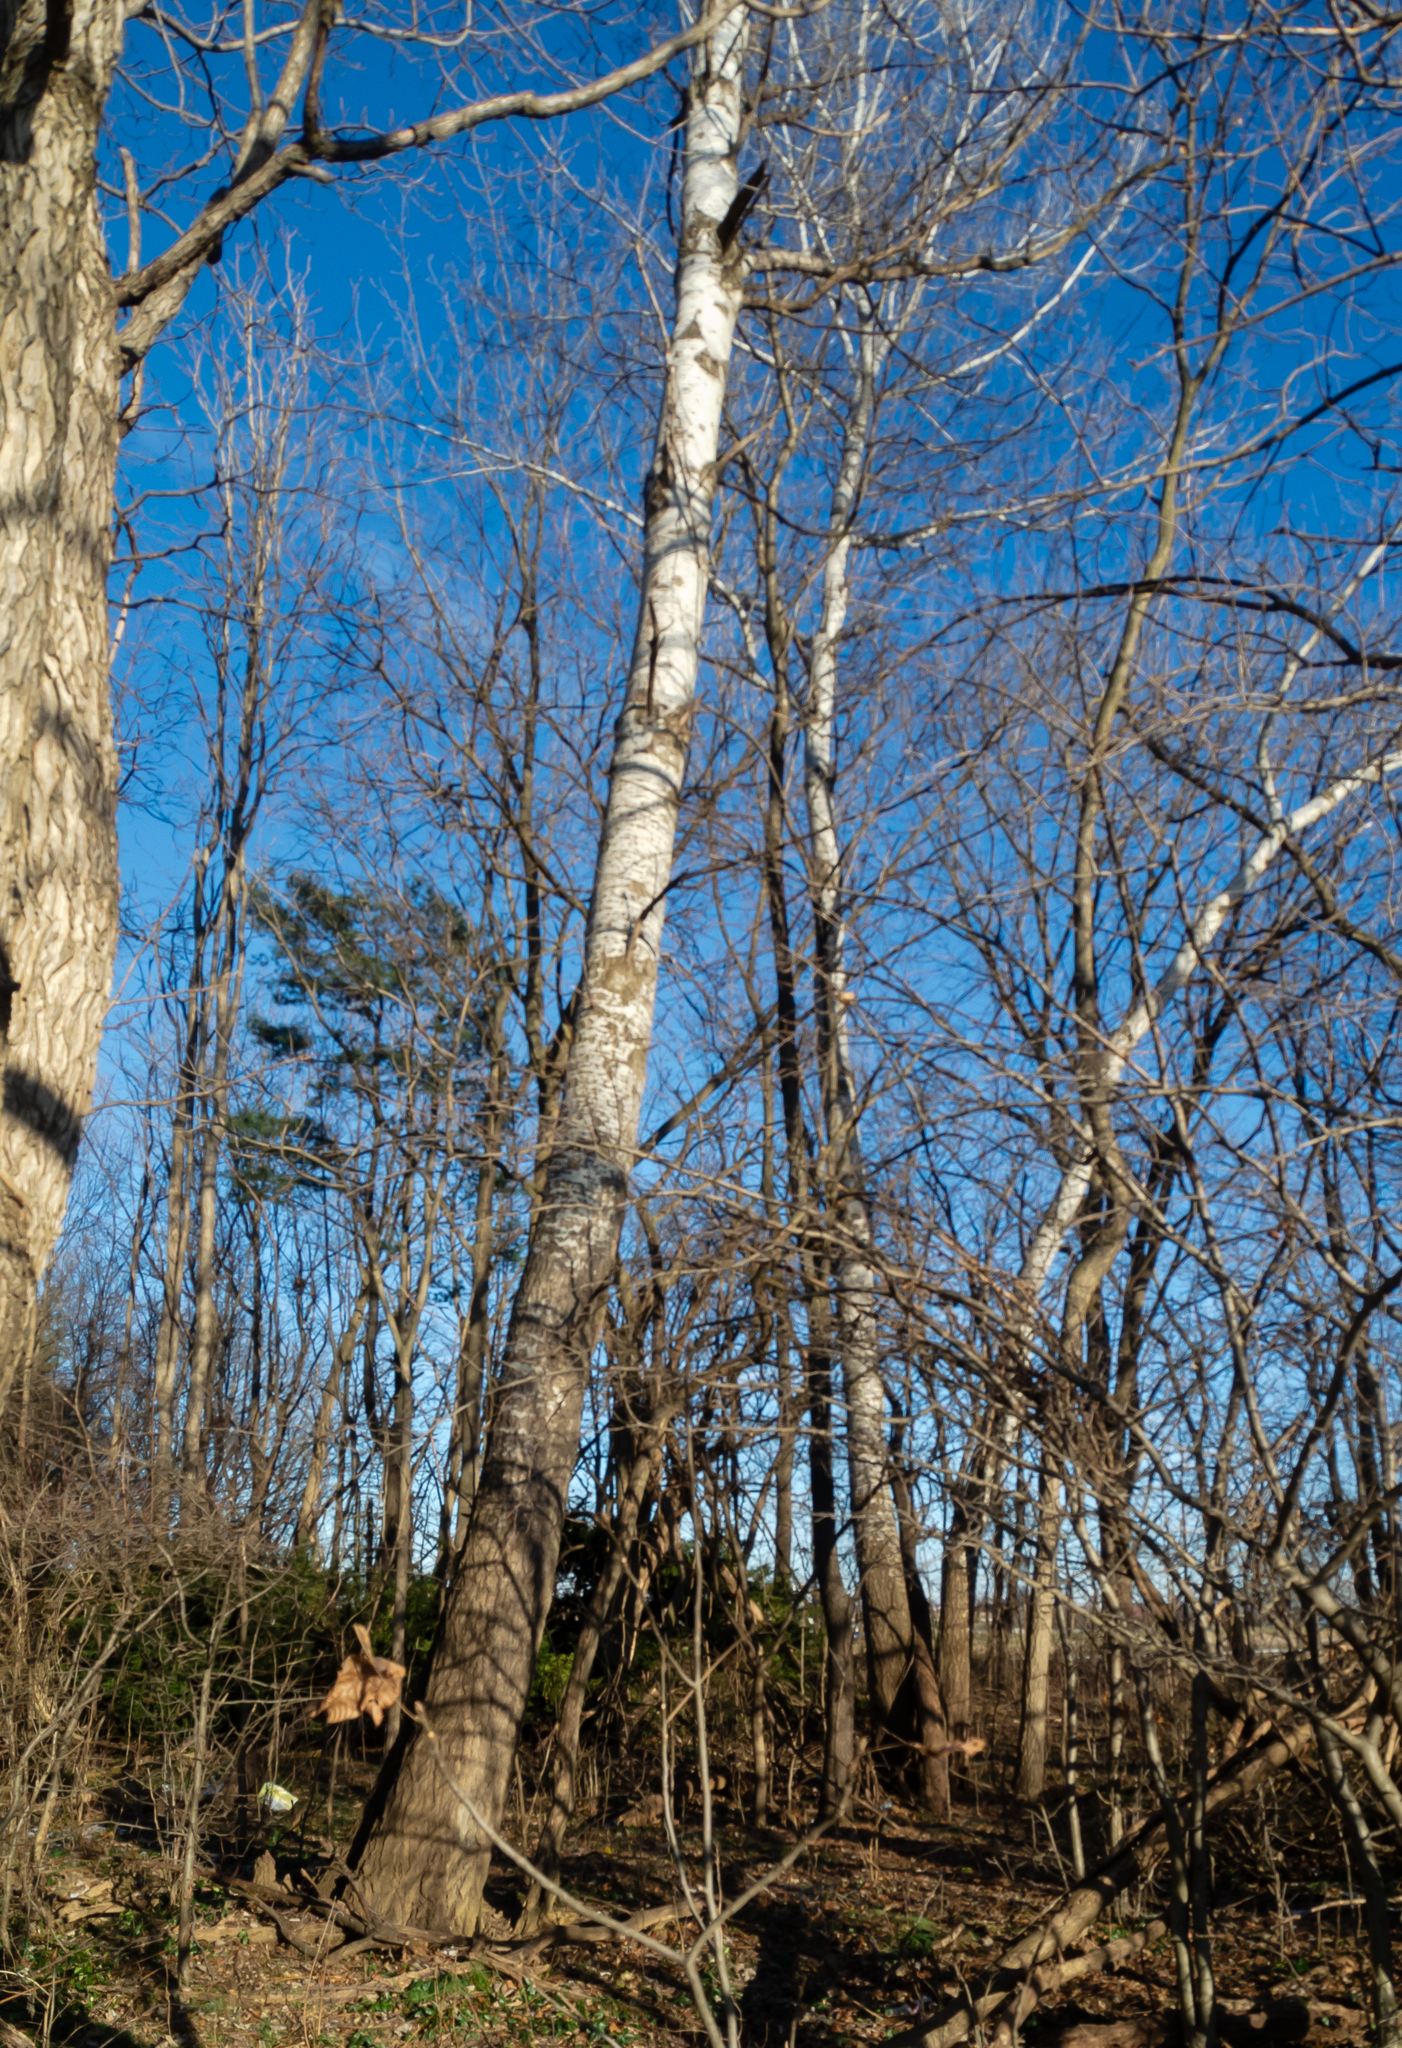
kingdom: Plantae
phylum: Tracheophyta
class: Magnoliopsida
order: Malpighiales
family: Salicaceae
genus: Populus
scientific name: Populus alba
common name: White poplar
